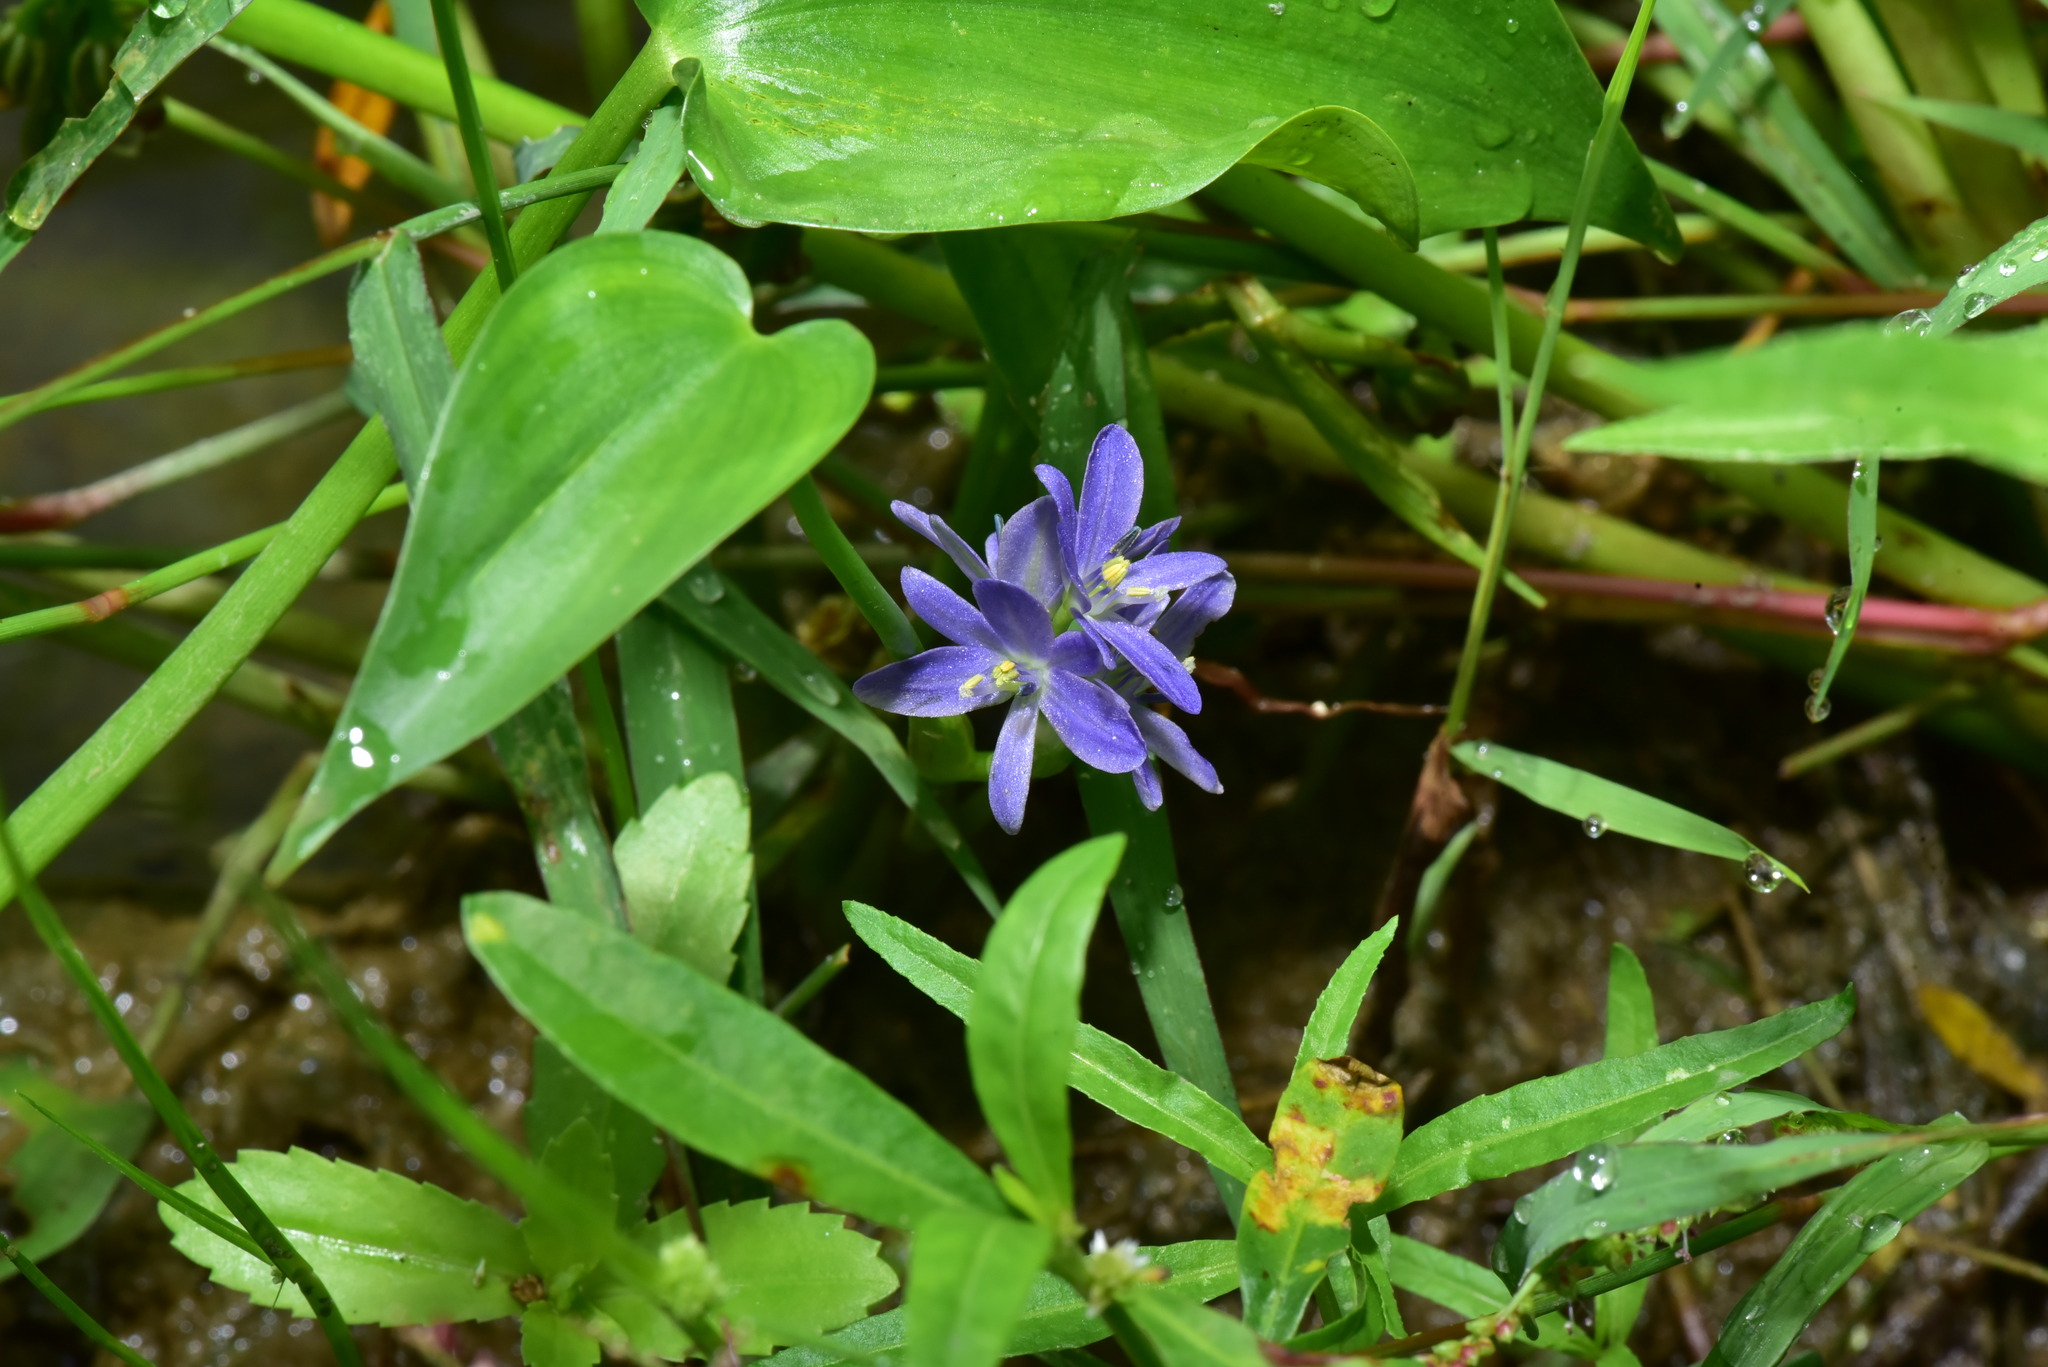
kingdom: Plantae
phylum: Tracheophyta
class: Liliopsida
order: Commelinales
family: Pontederiaceae
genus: Pontederia
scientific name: Pontederia vaginalis
